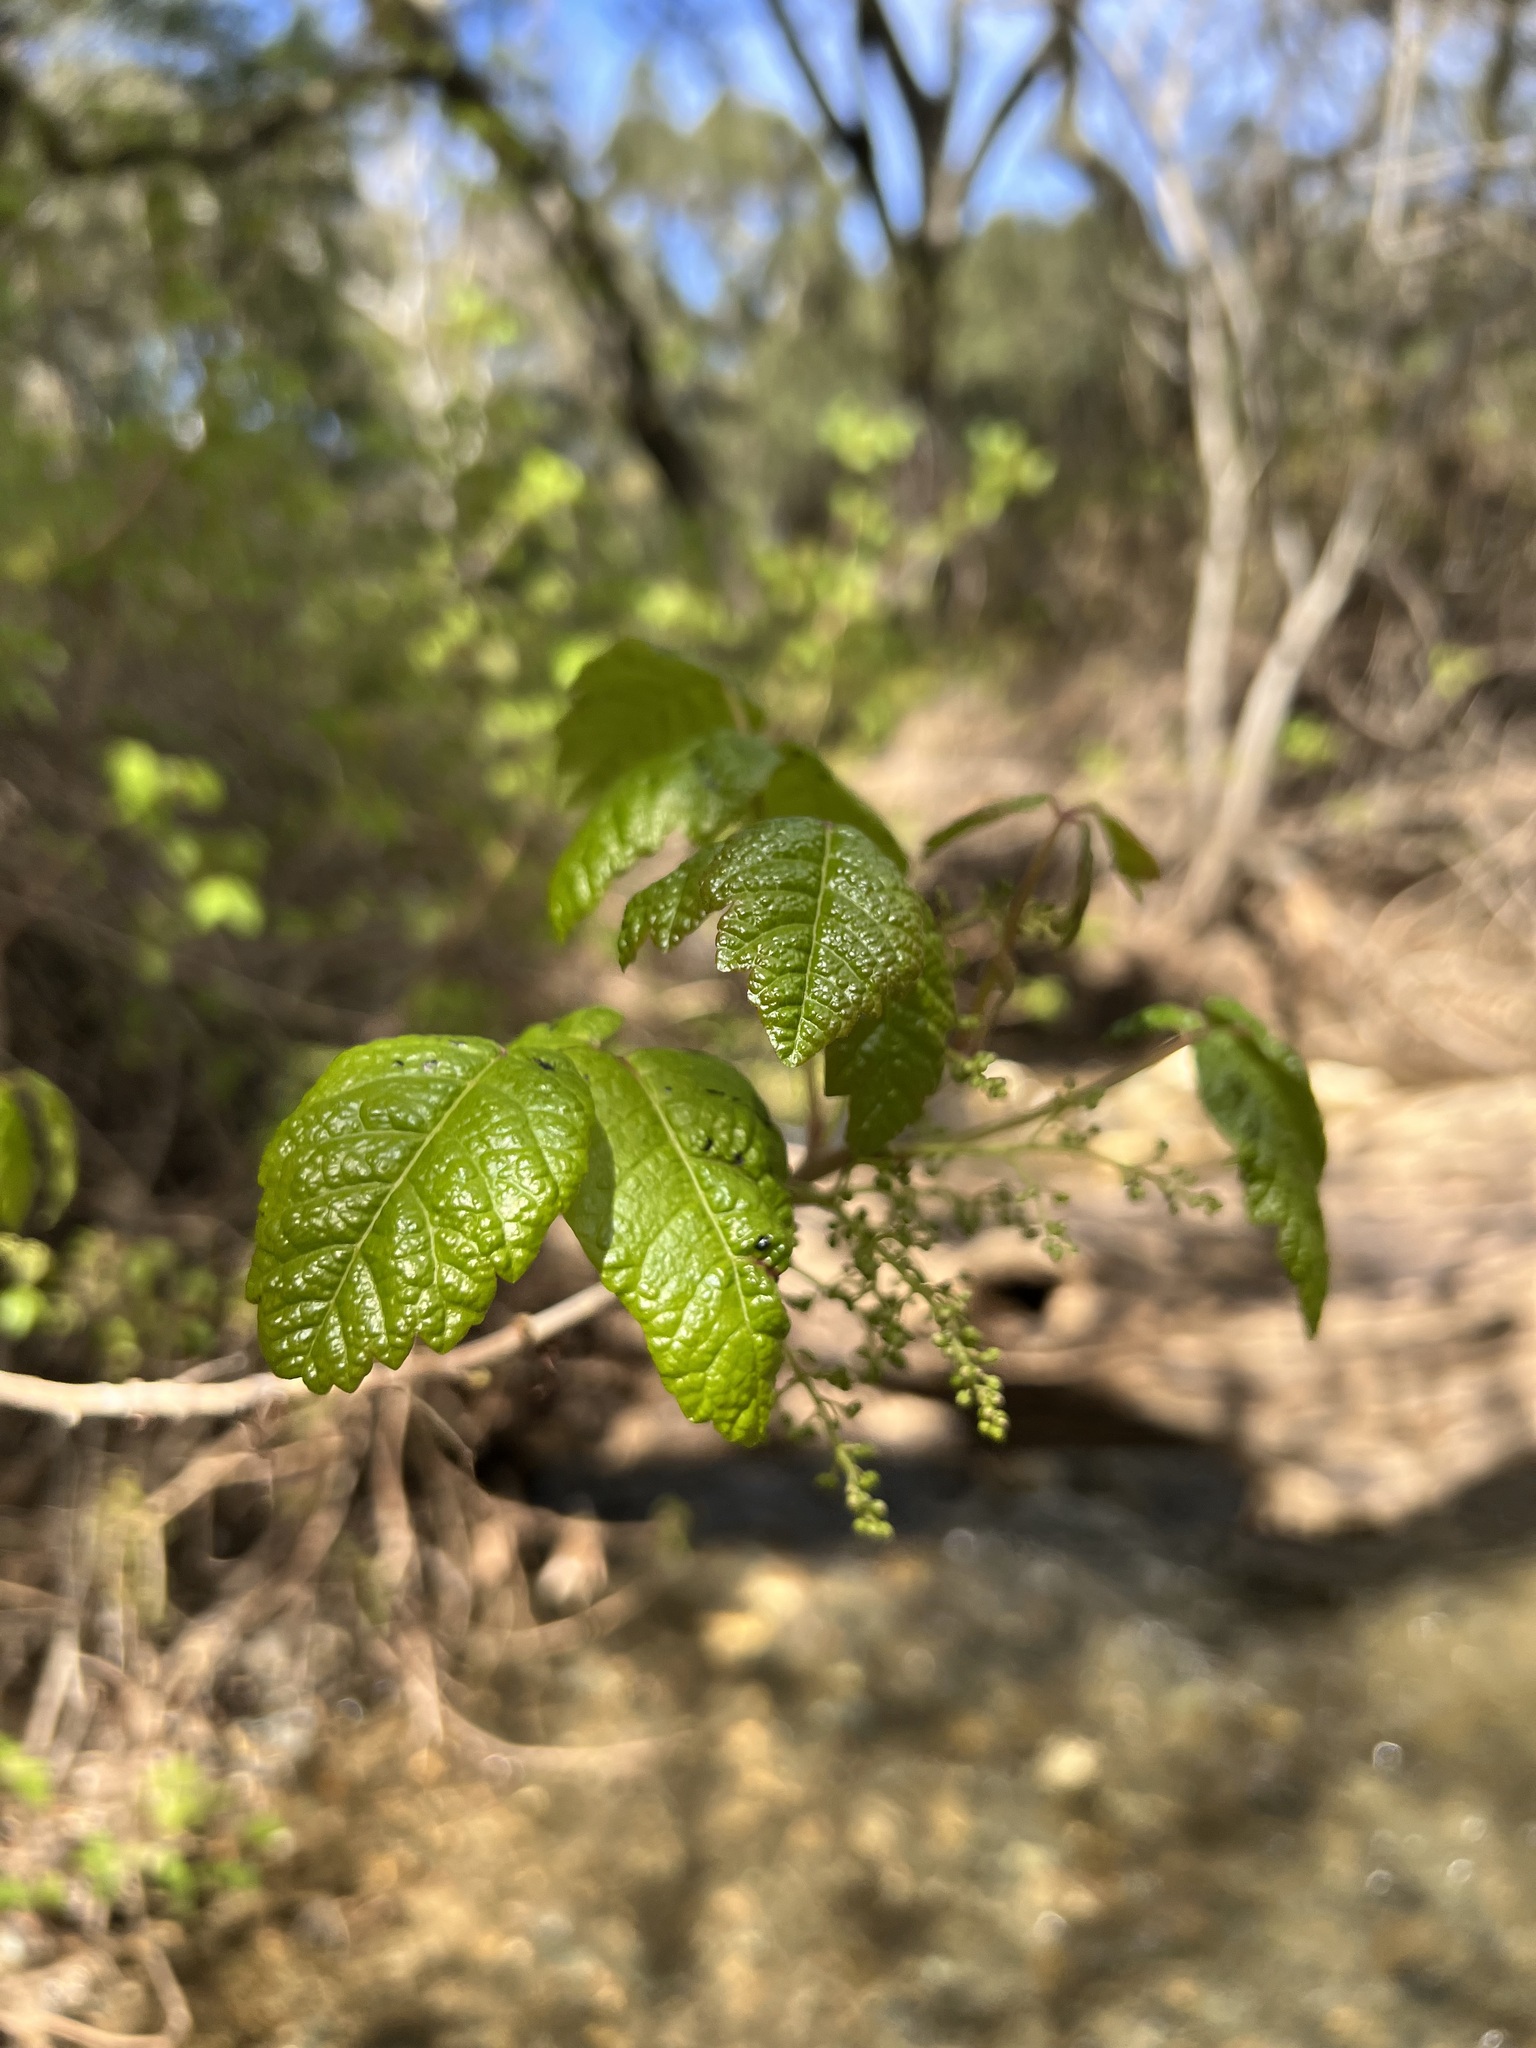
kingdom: Plantae
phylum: Tracheophyta
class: Magnoliopsida
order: Sapindales
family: Anacardiaceae
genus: Toxicodendron
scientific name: Toxicodendron diversilobum
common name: Pacific poison-oak
